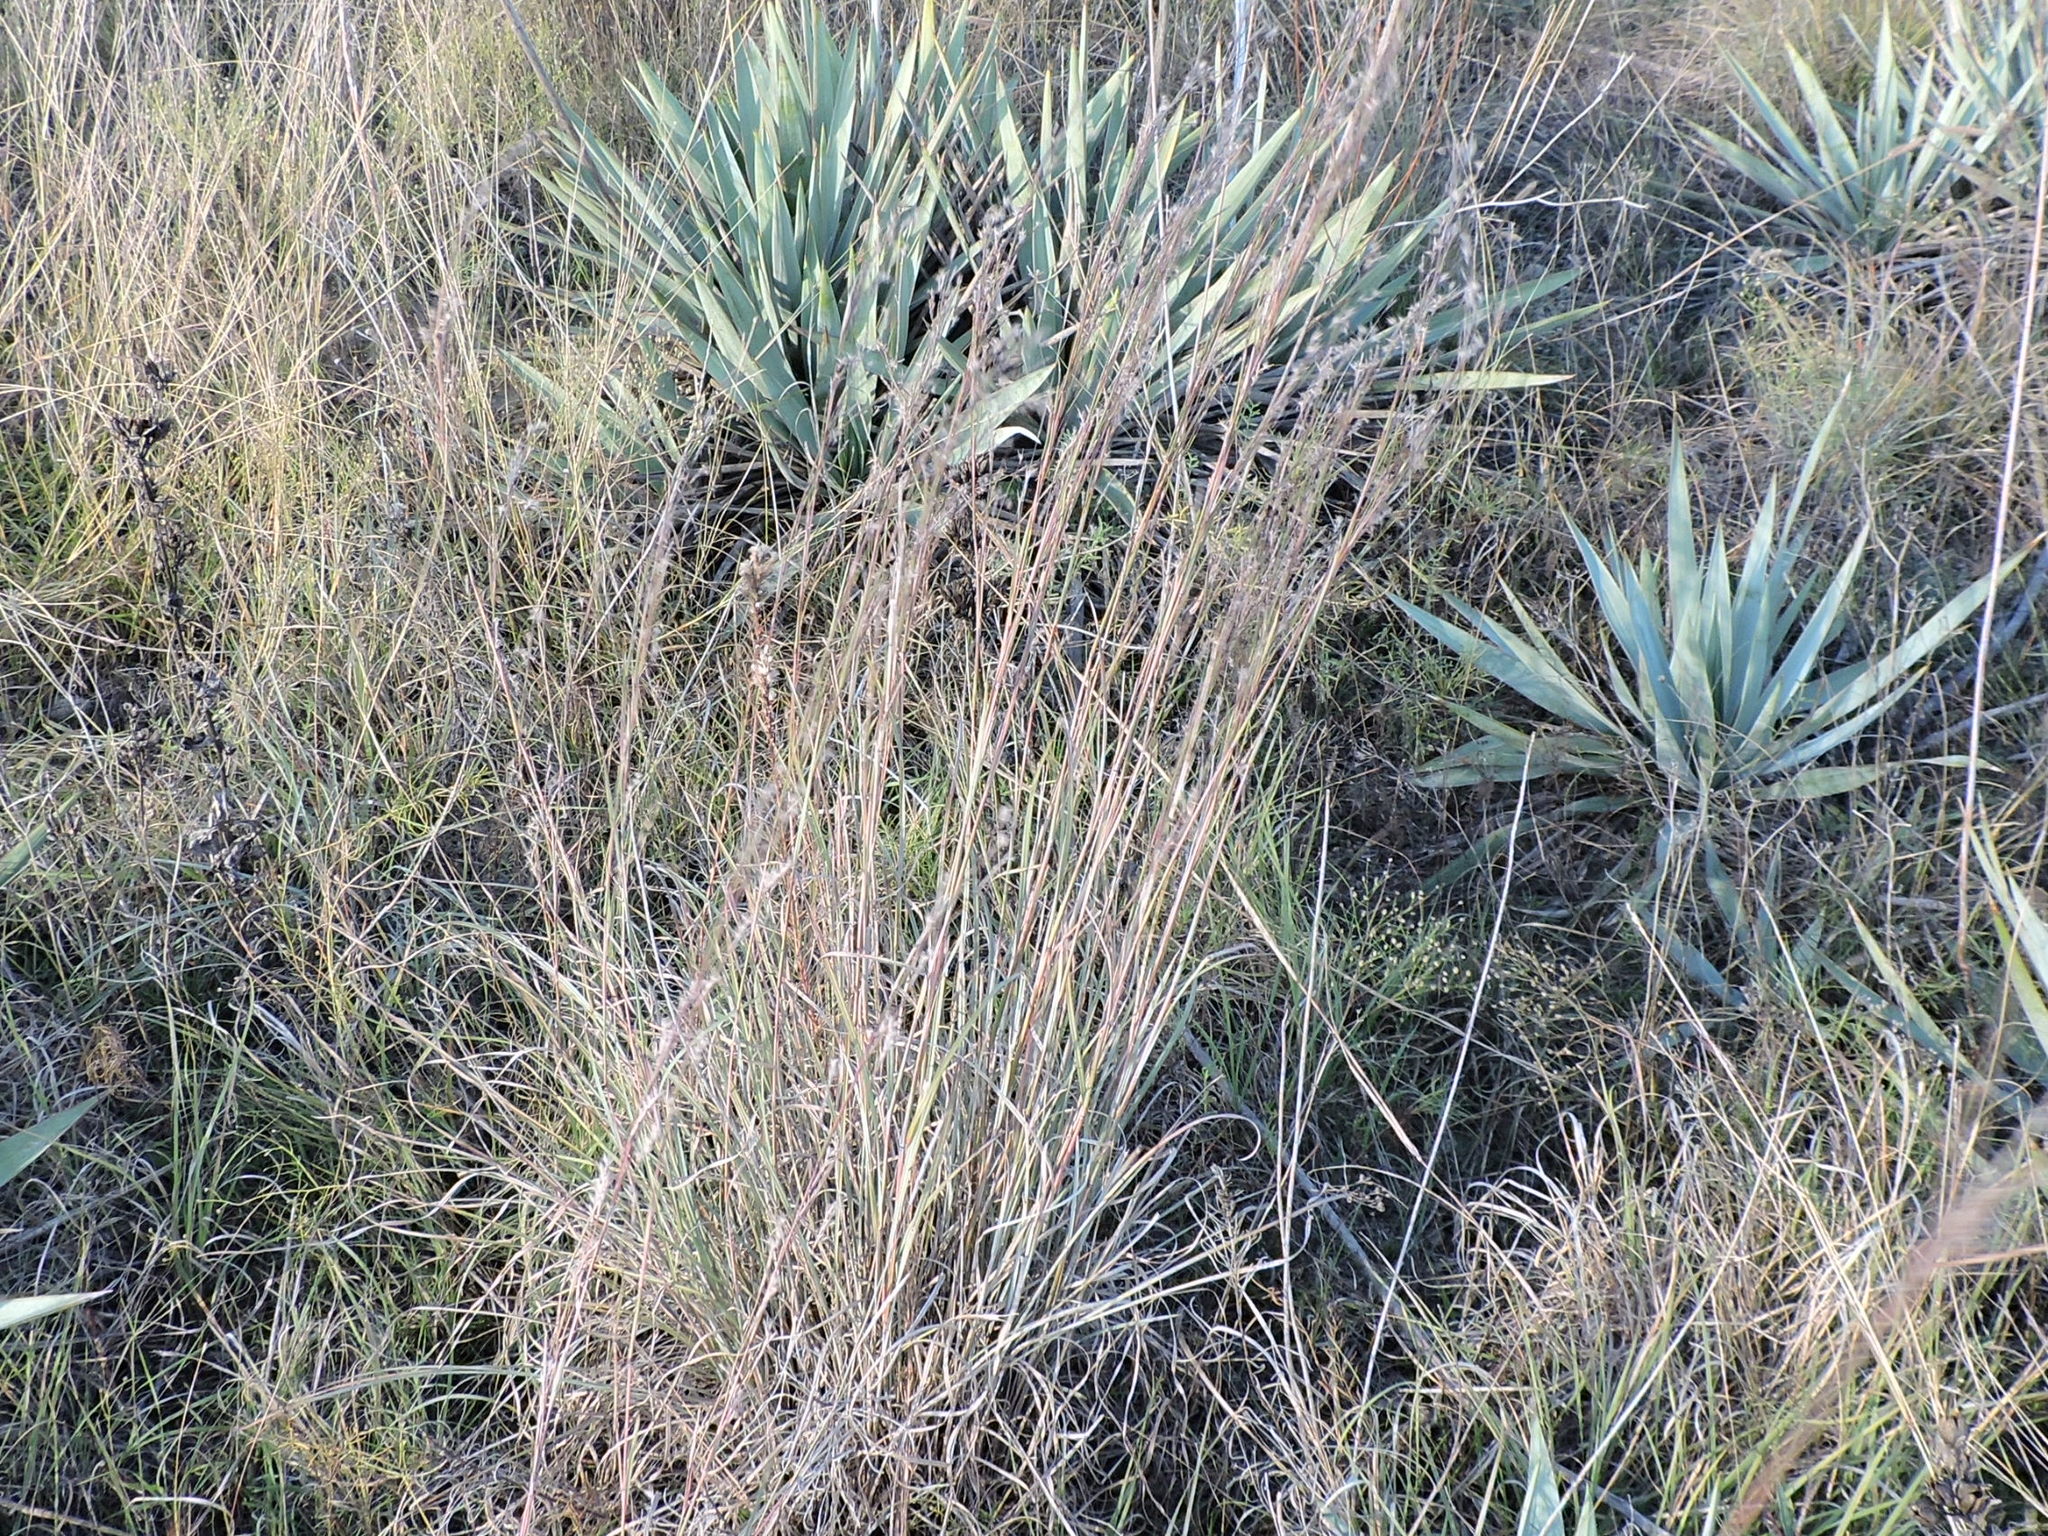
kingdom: Plantae
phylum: Tracheophyta
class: Liliopsida
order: Poales
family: Poaceae
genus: Schizachyrium
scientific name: Schizachyrium scoparium
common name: Little bluestem
